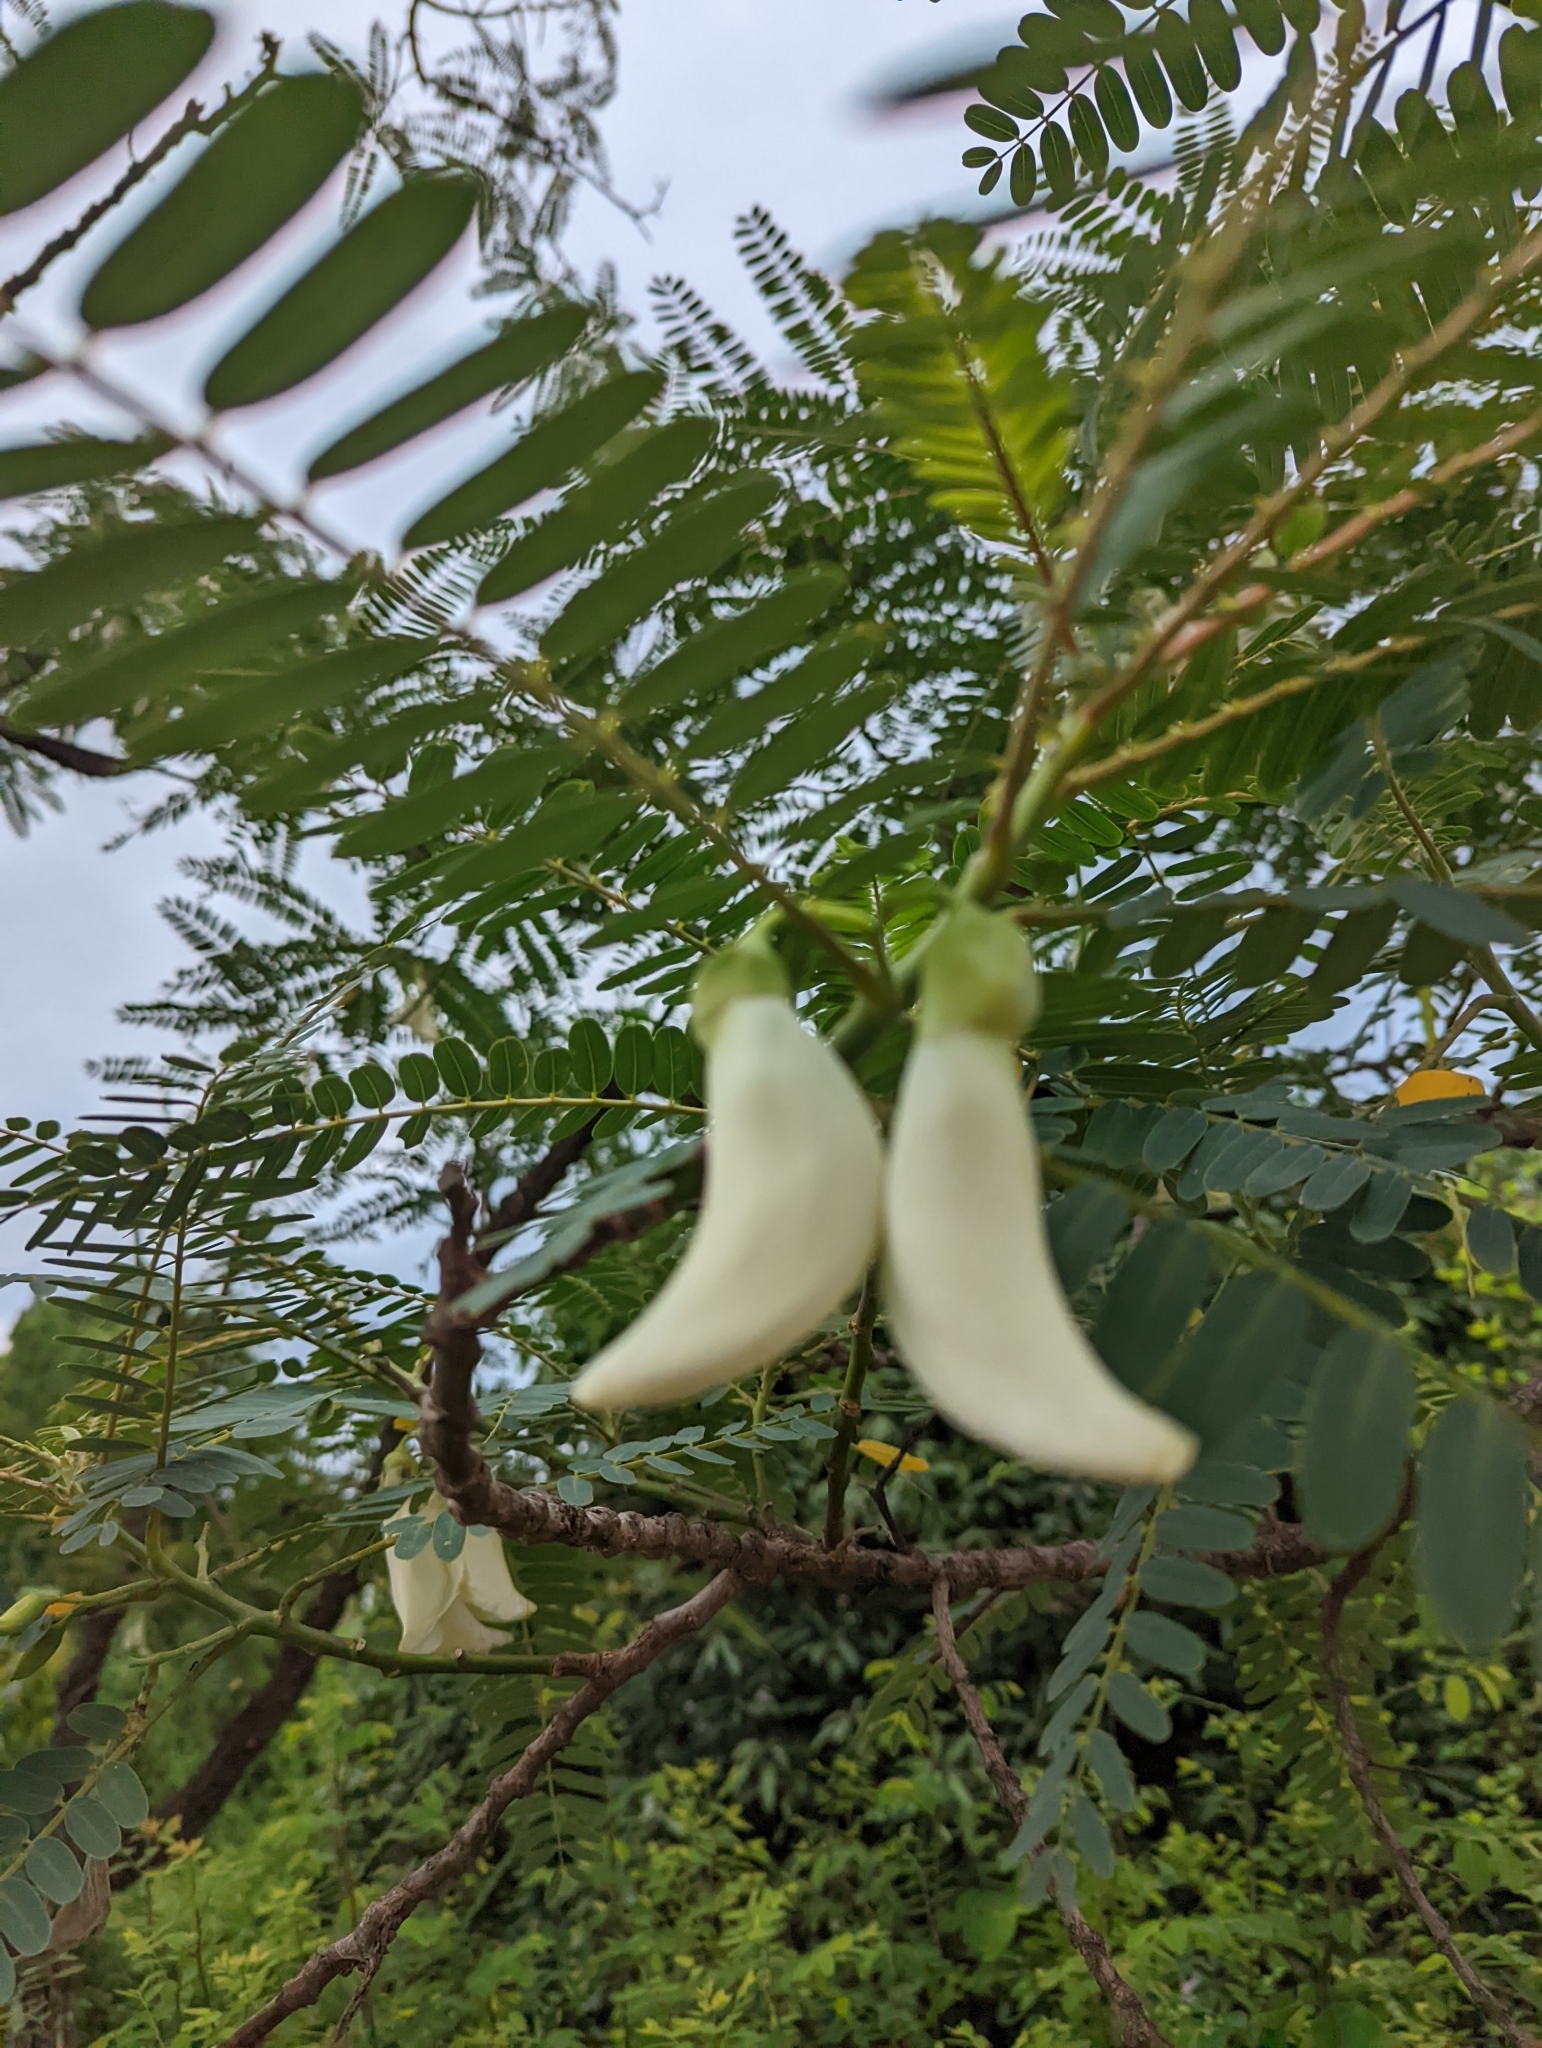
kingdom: Plantae
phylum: Tracheophyta
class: Magnoliopsida
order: Fabales
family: Fabaceae
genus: Sesbania
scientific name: Sesbania grandiflora
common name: Vegetable-hummingbird
